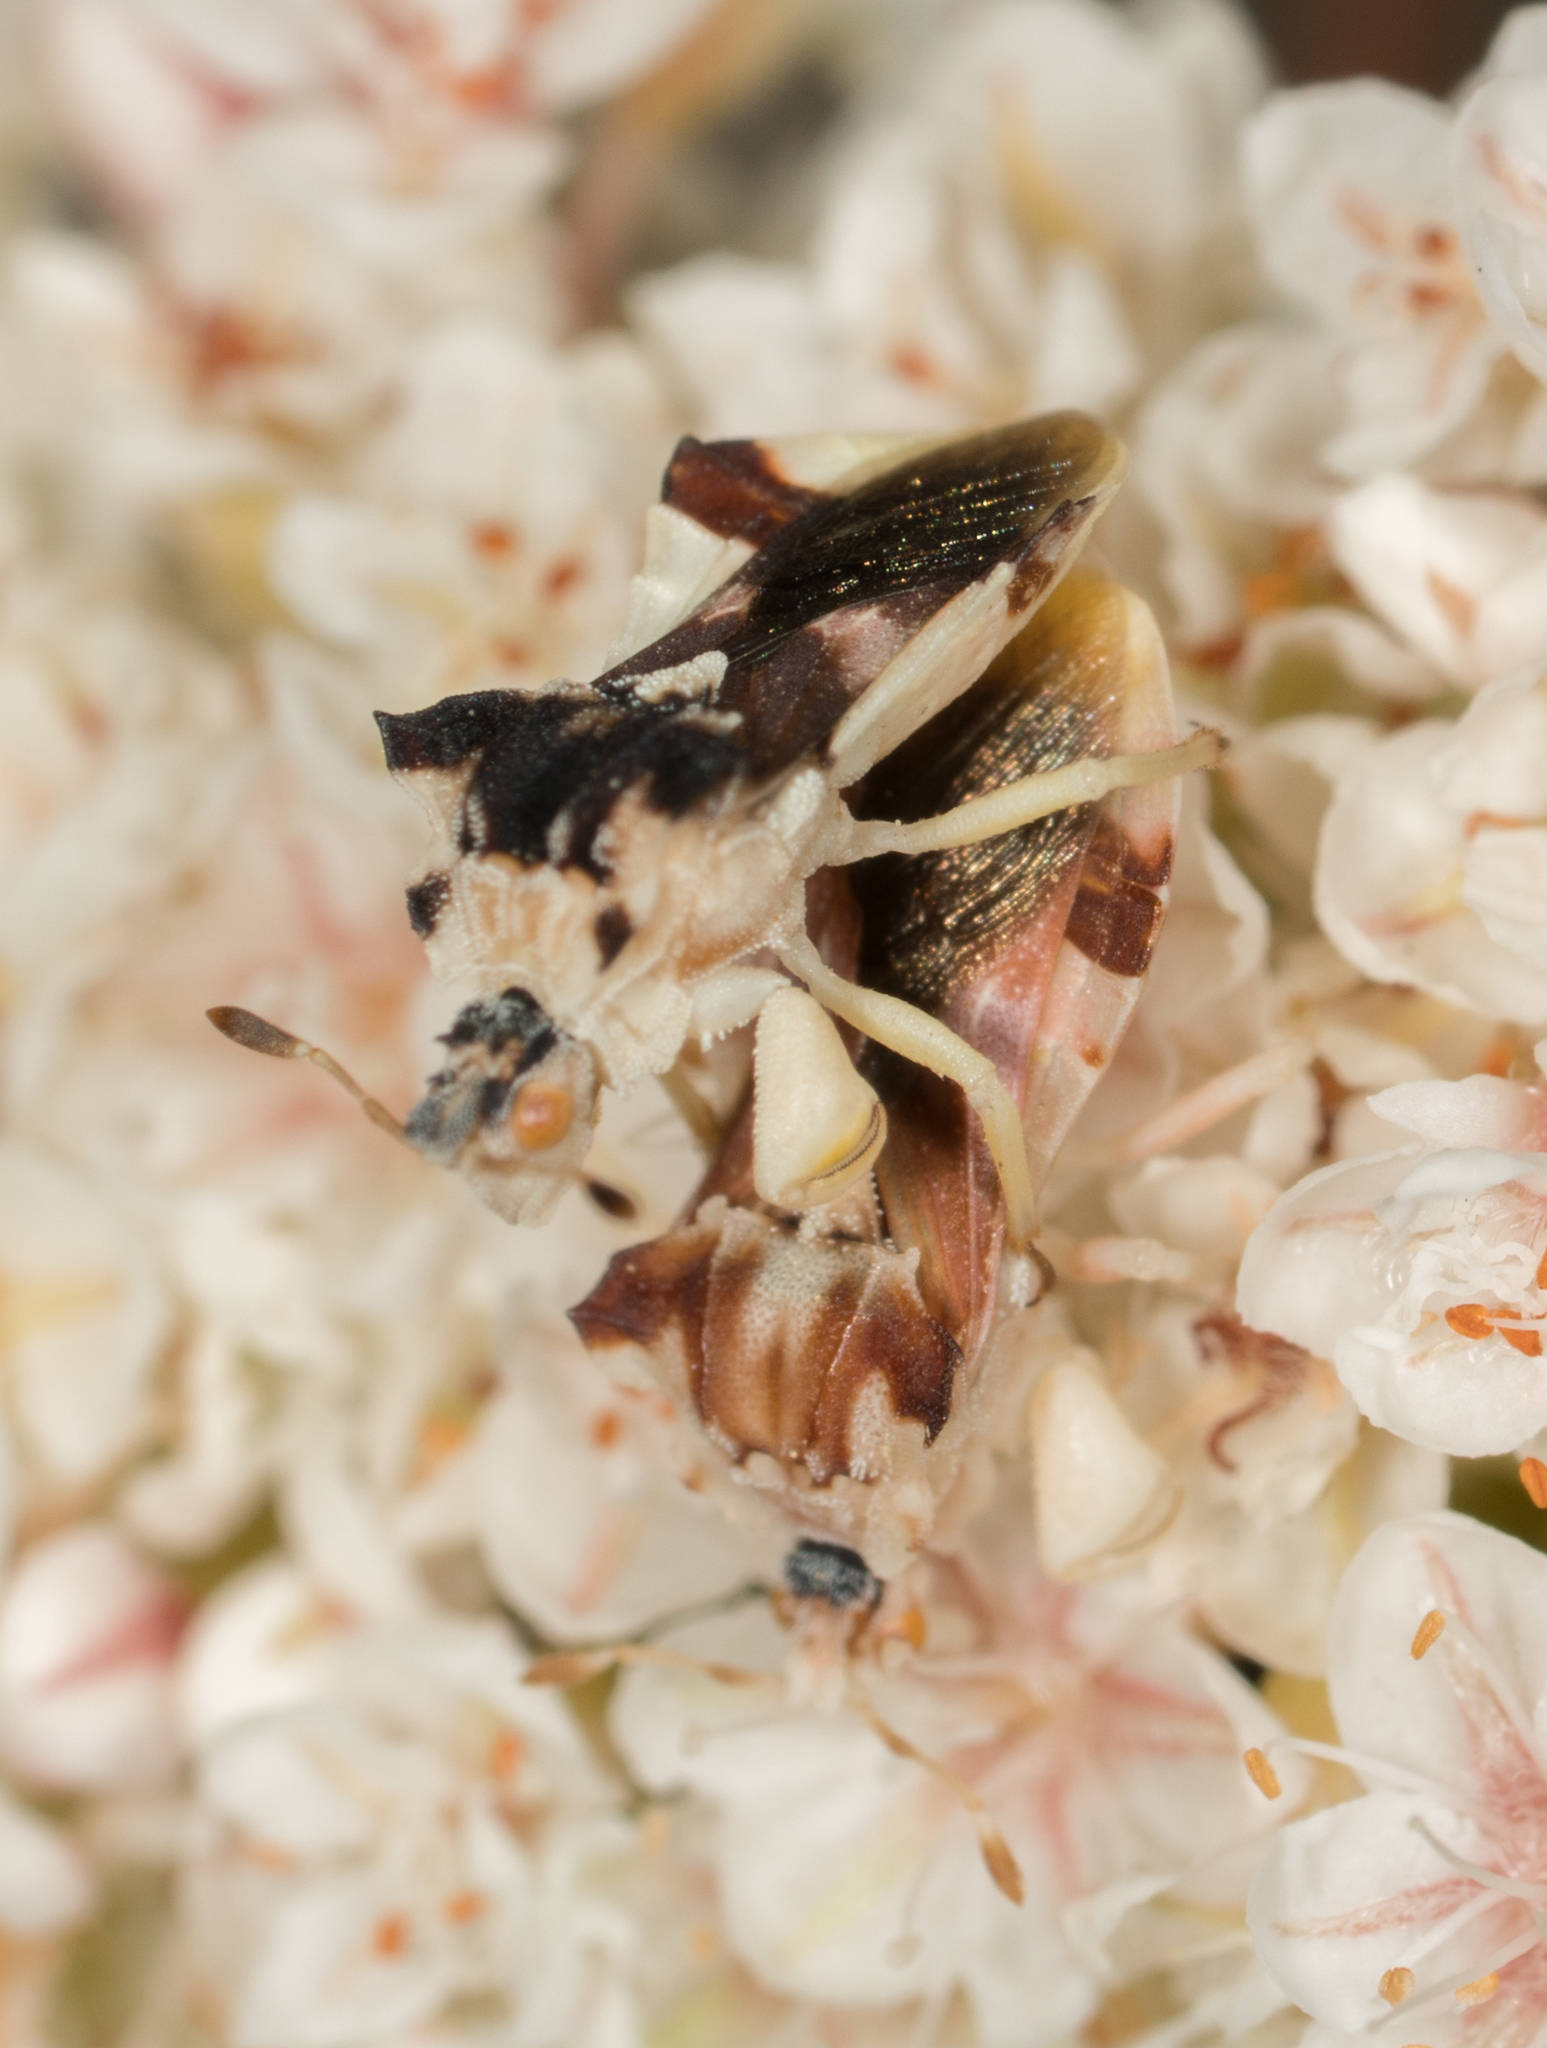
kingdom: Animalia
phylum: Arthropoda
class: Insecta
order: Hemiptera
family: Reduviidae
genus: Phymata
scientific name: Phymata pacifica
